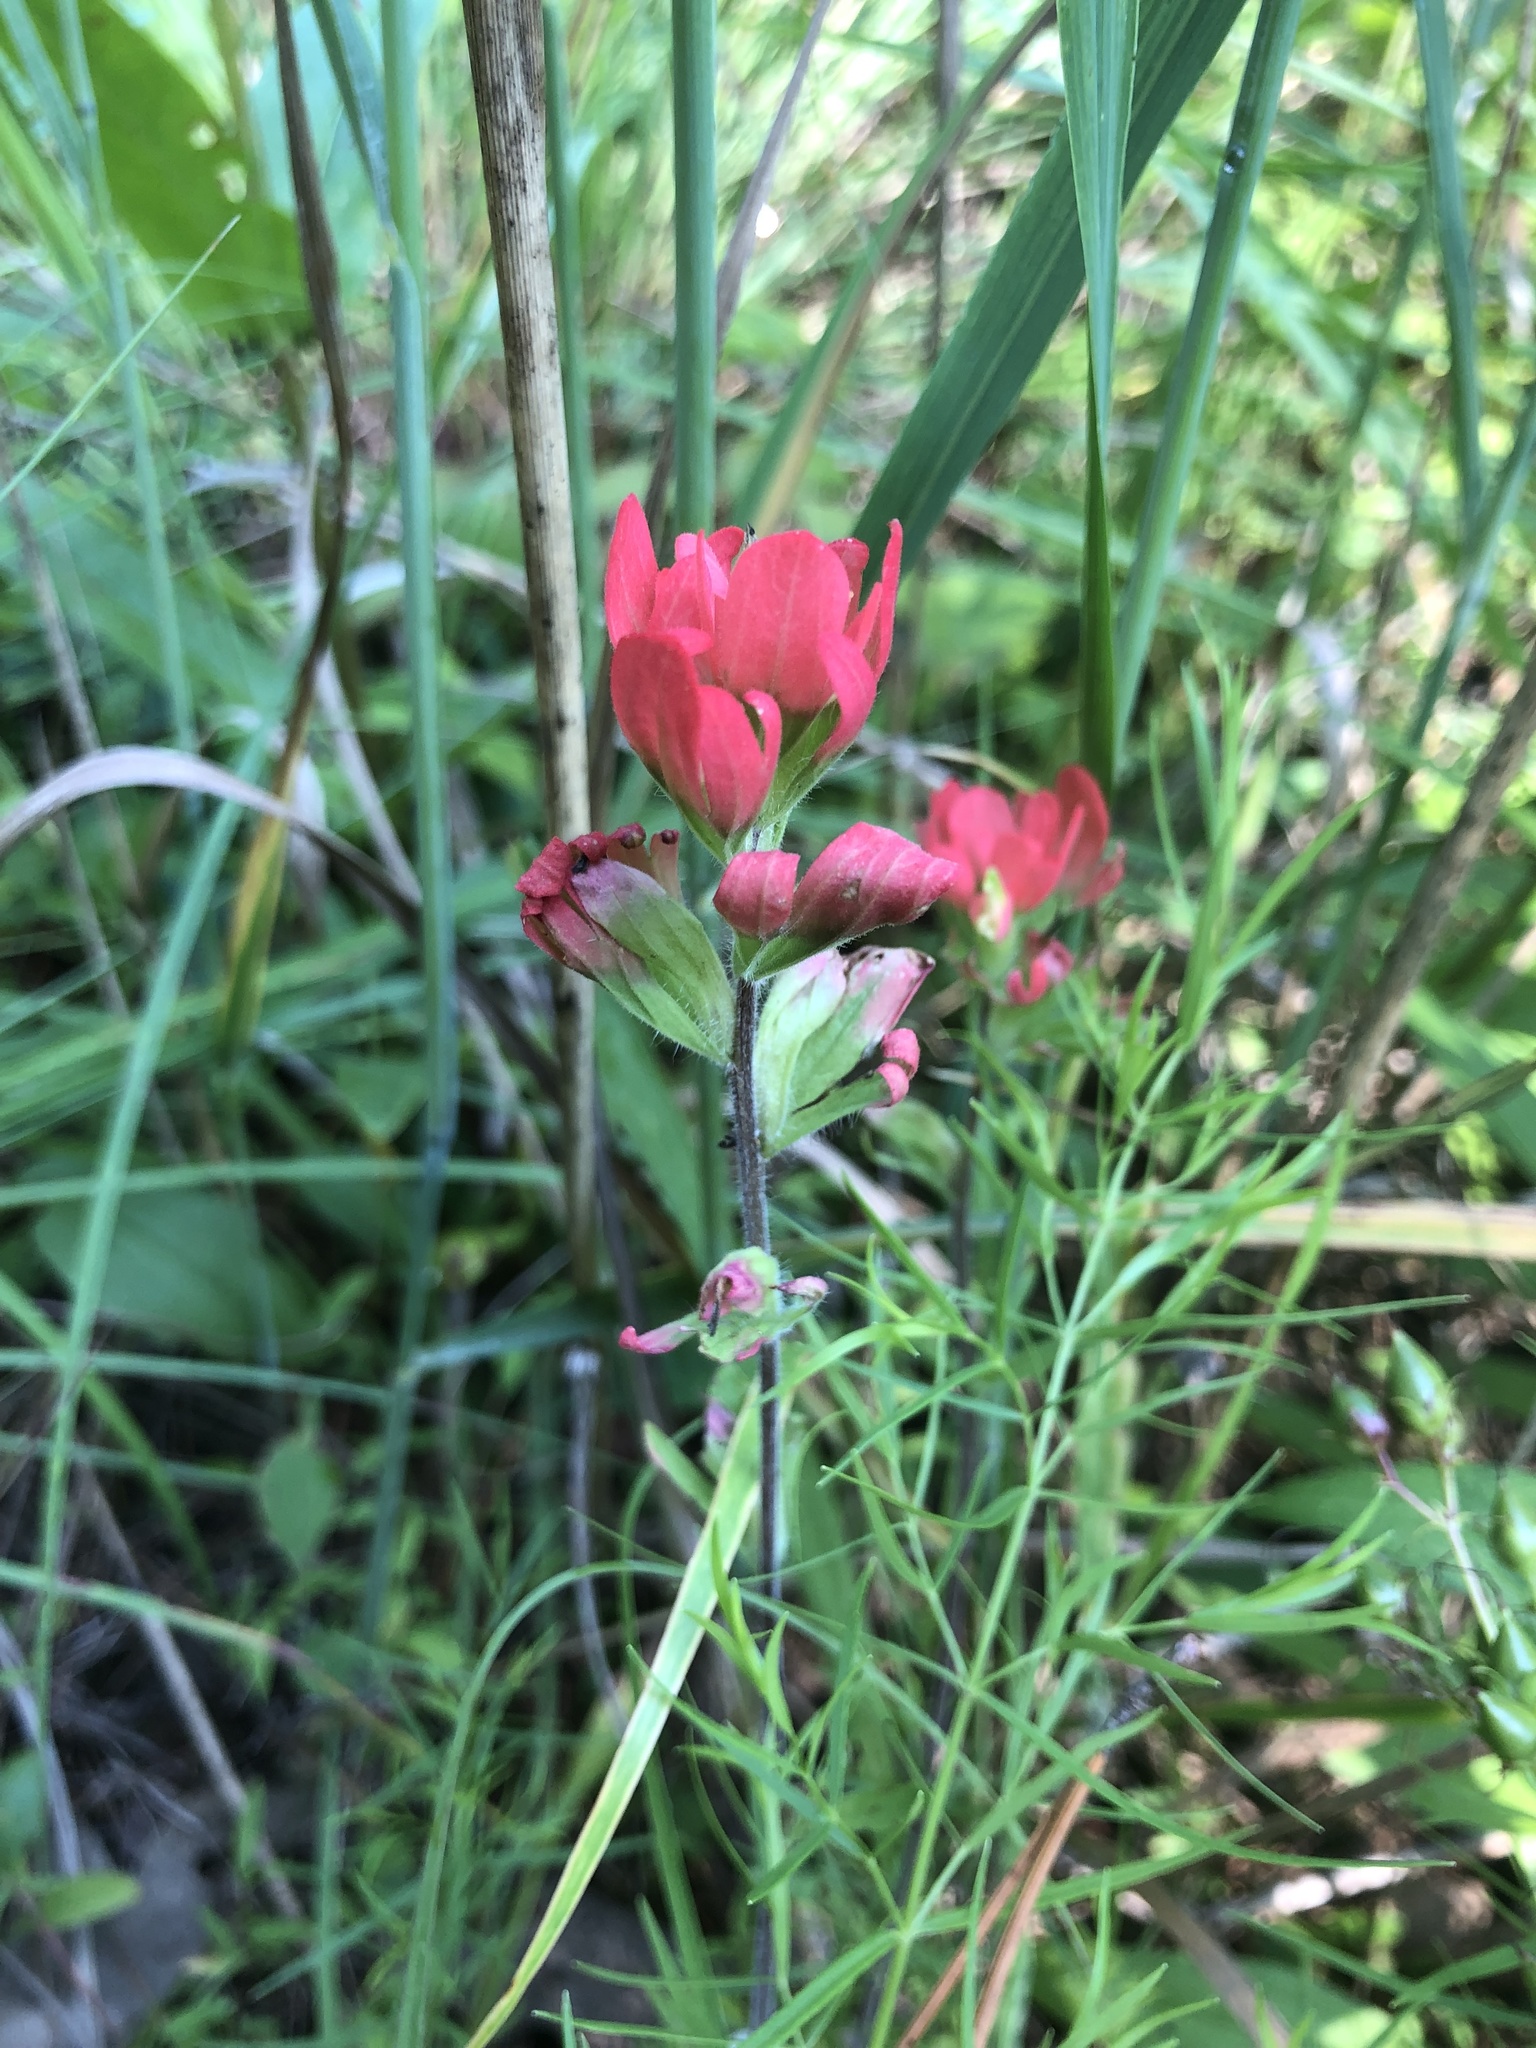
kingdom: Plantae
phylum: Tracheophyta
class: Magnoliopsida
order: Lamiales
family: Orobanchaceae
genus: Castilleja
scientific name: Castilleja coccinea
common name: Scarlet paintbrush
